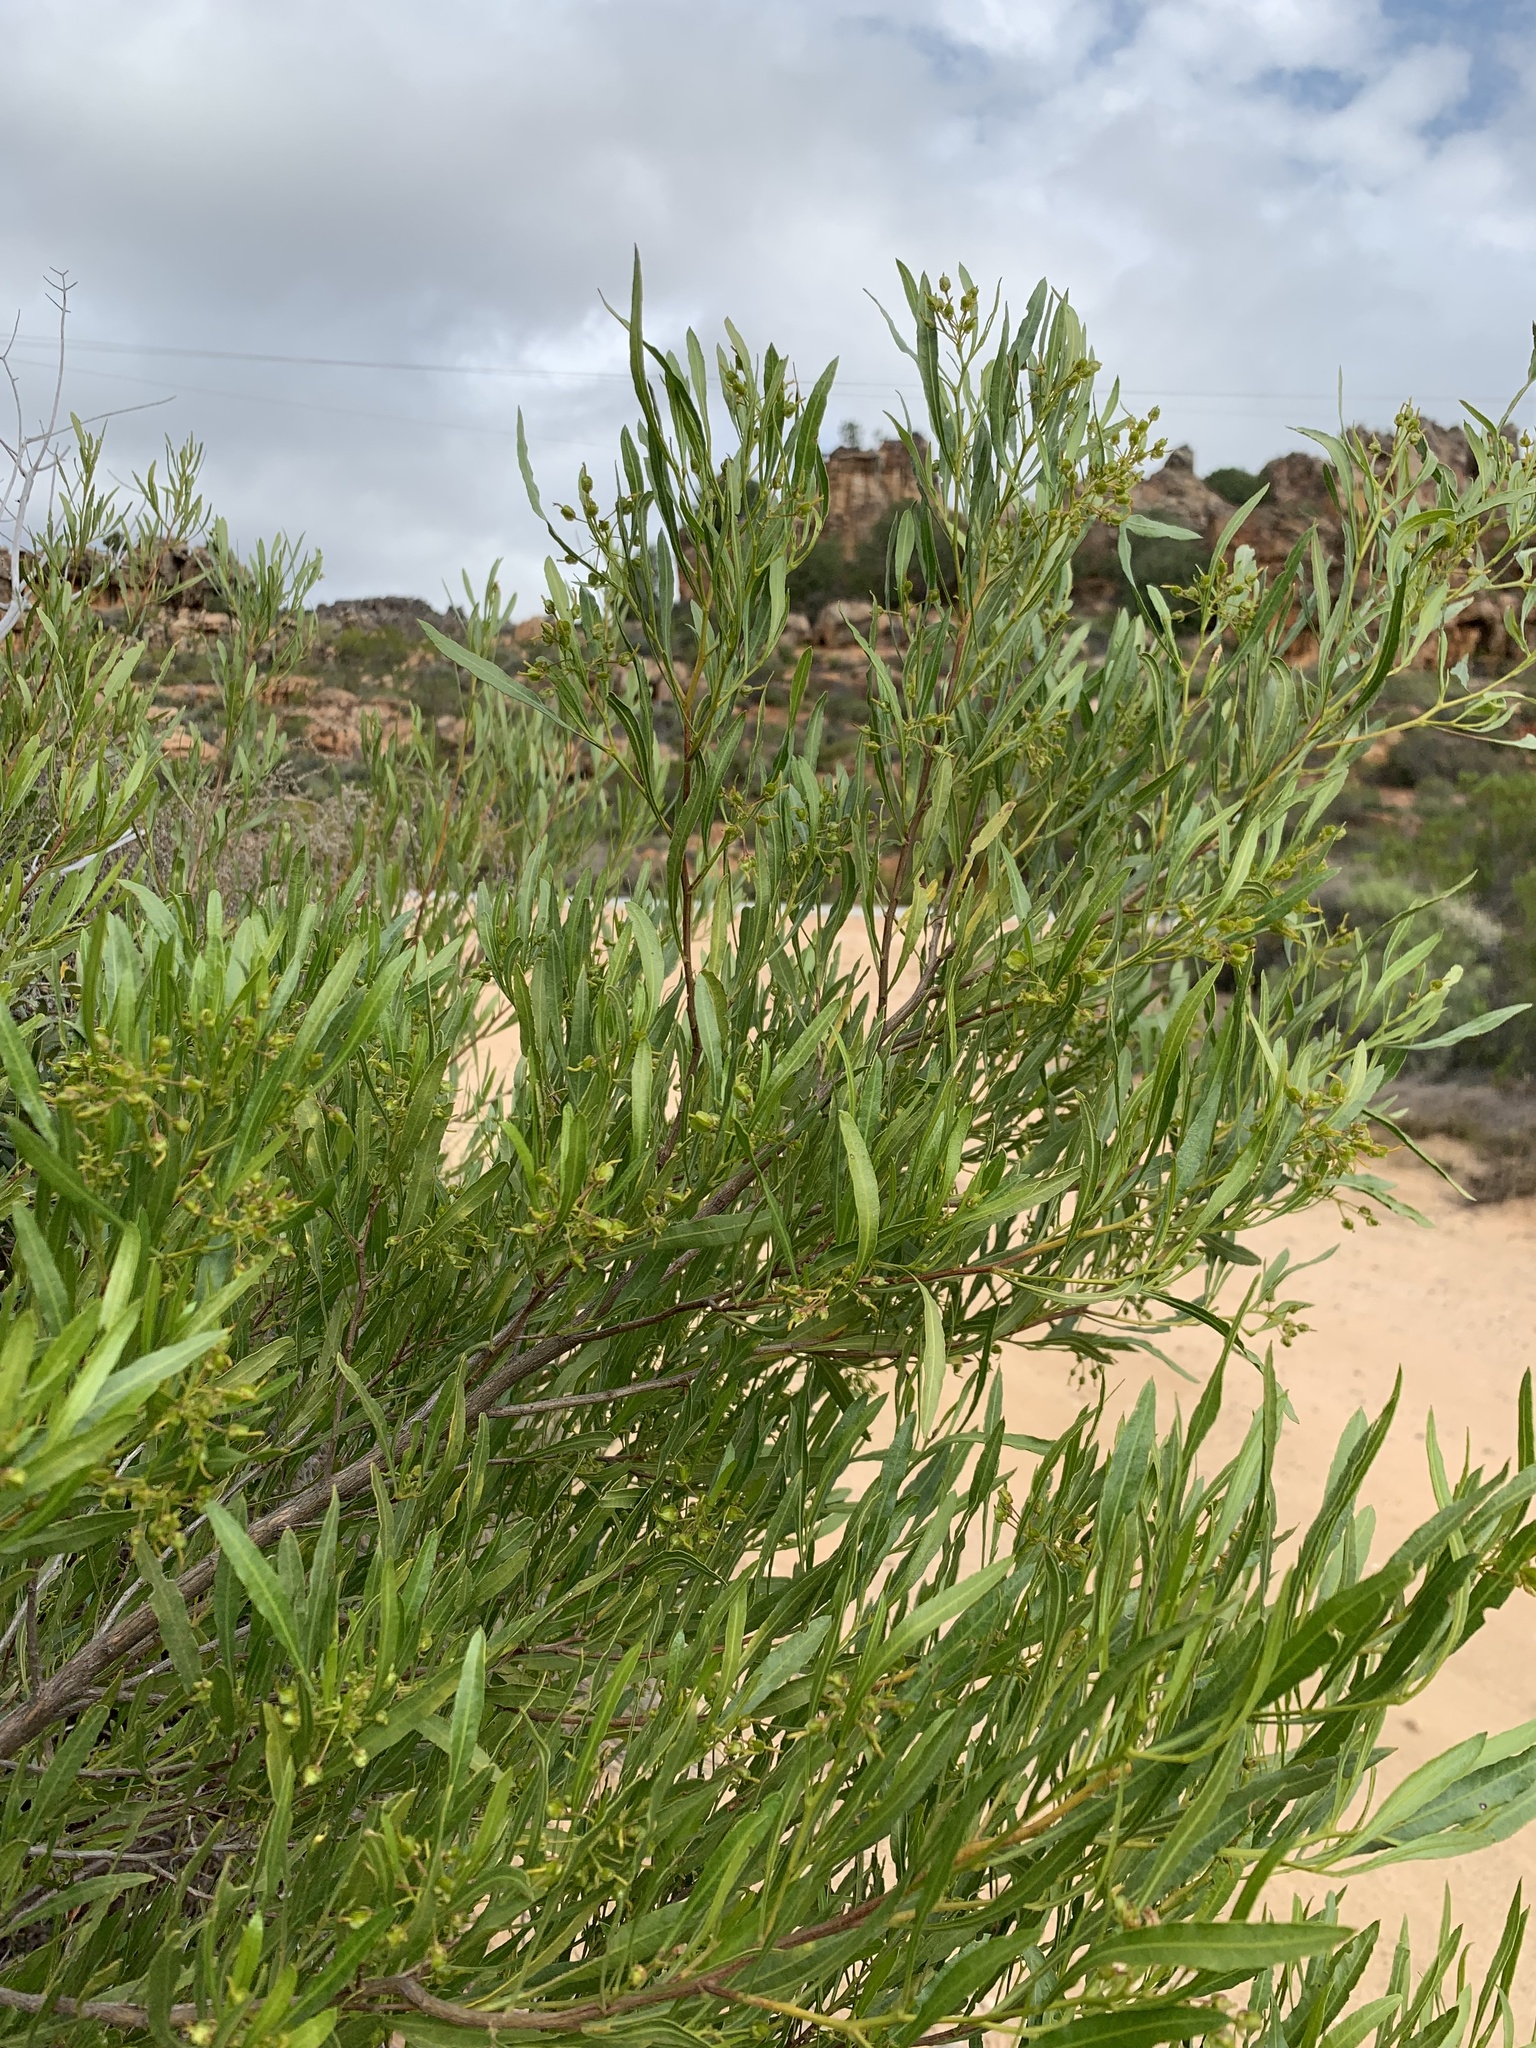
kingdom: Plantae
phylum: Tracheophyta
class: Magnoliopsida
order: Sapindales
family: Sapindaceae
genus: Dodonaea
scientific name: Dodonaea viscosa
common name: Hopbush
